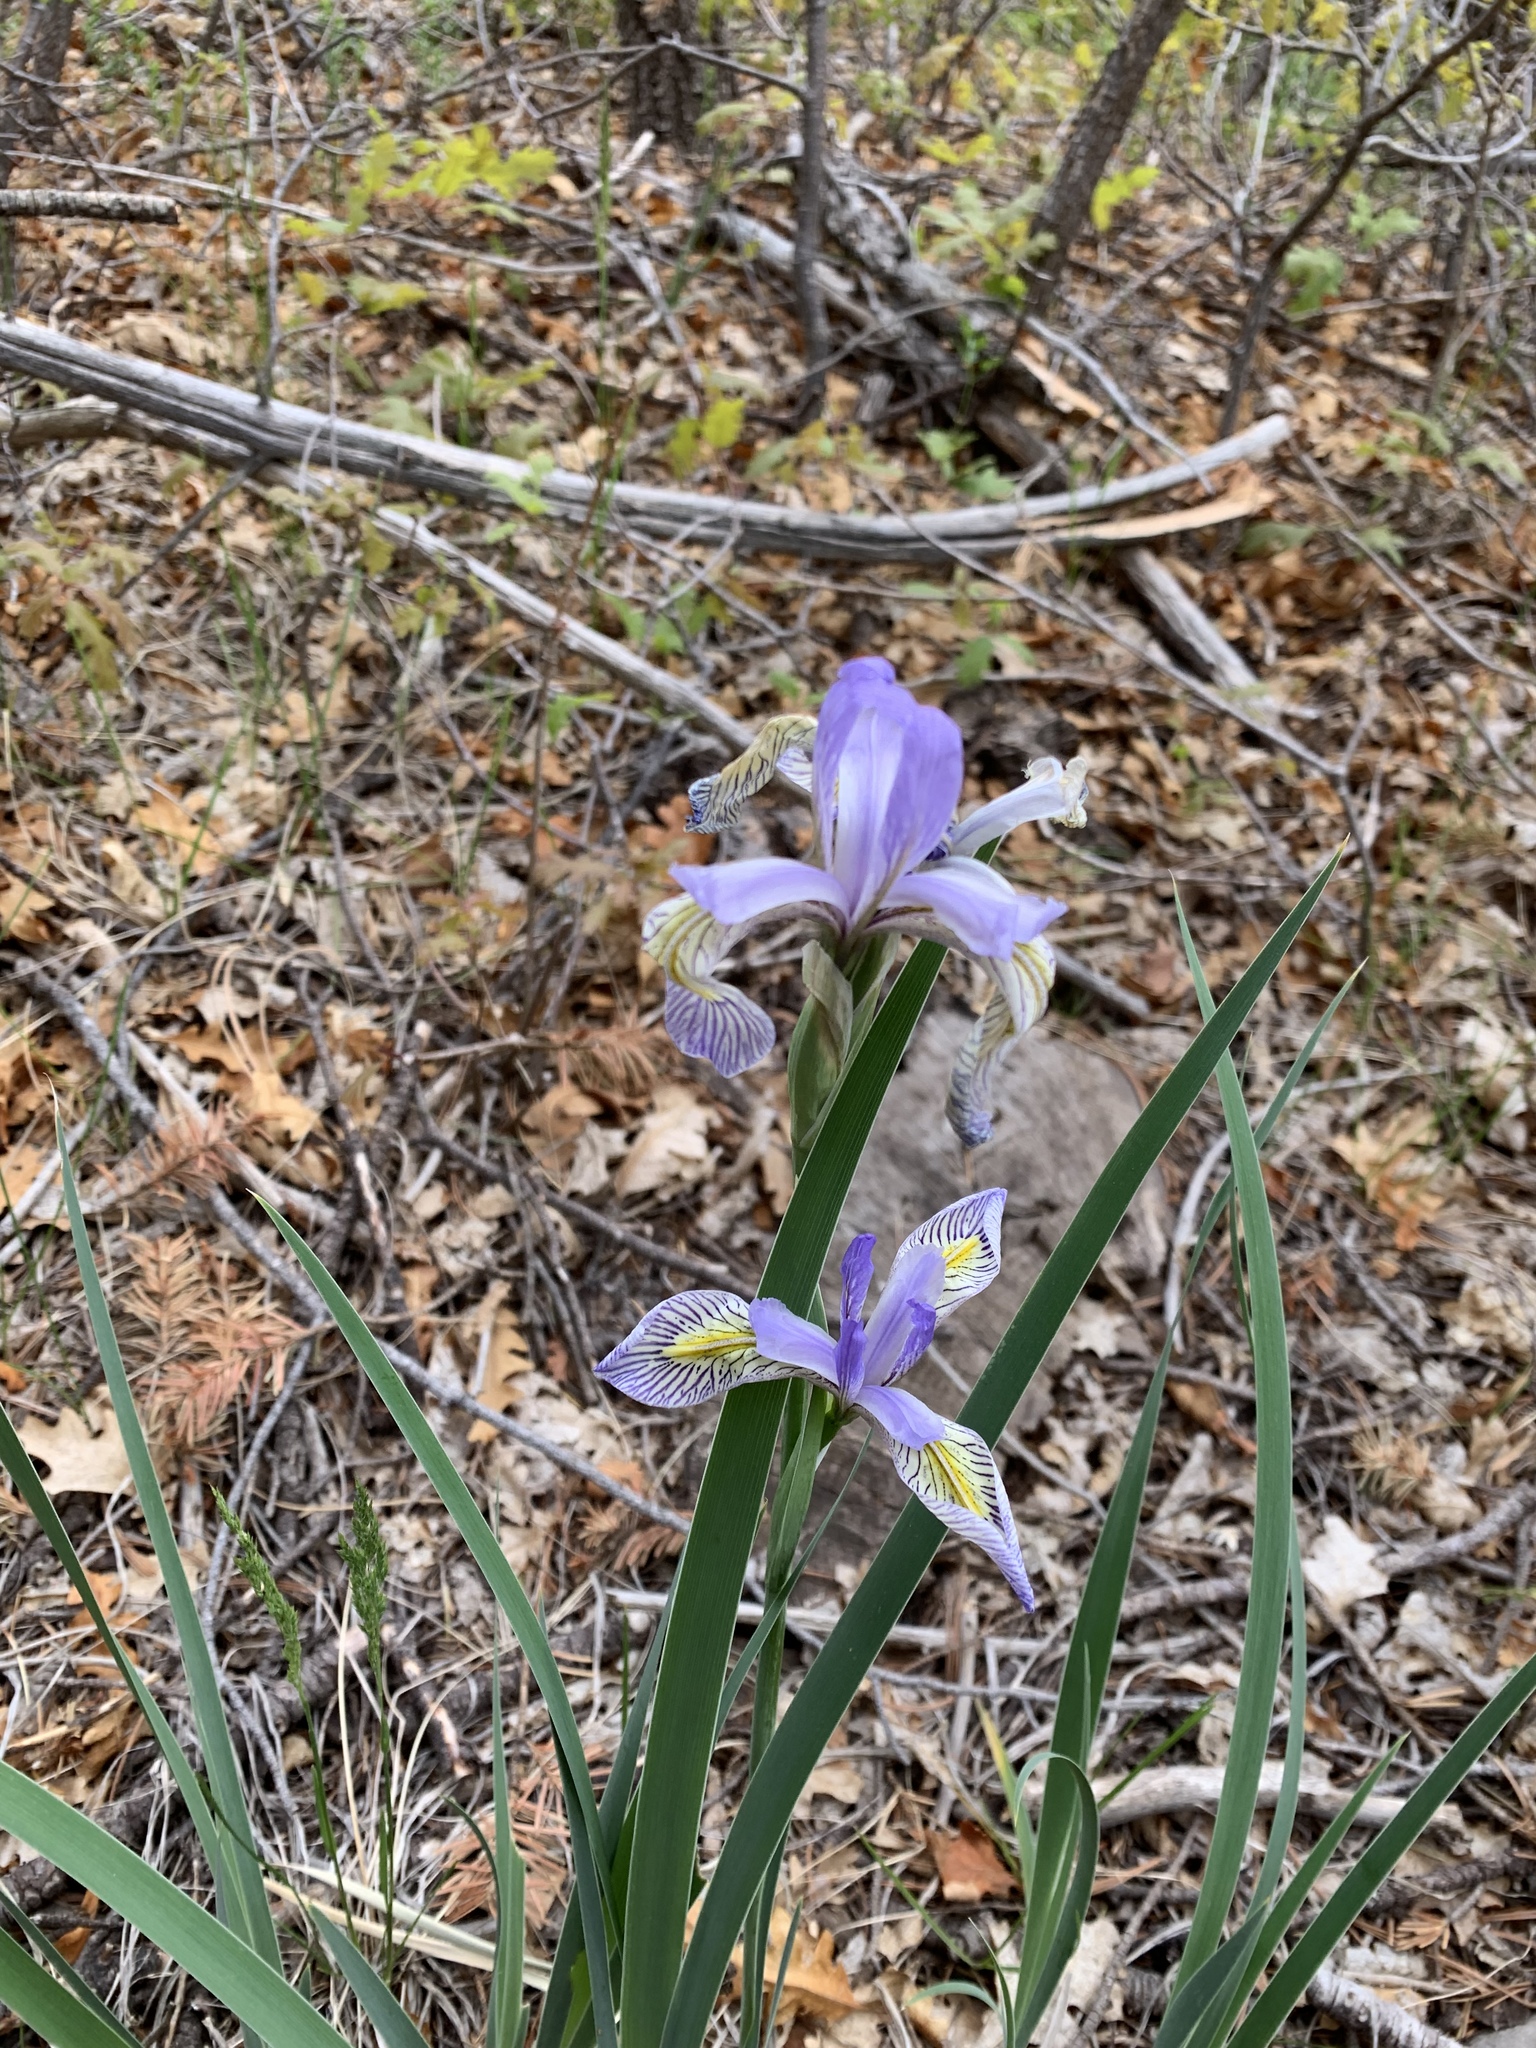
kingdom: Plantae
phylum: Tracheophyta
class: Liliopsida
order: Asparagales
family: Iridaceae
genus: Iris
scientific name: Iris missouriensis
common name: Rocky mountain iris
